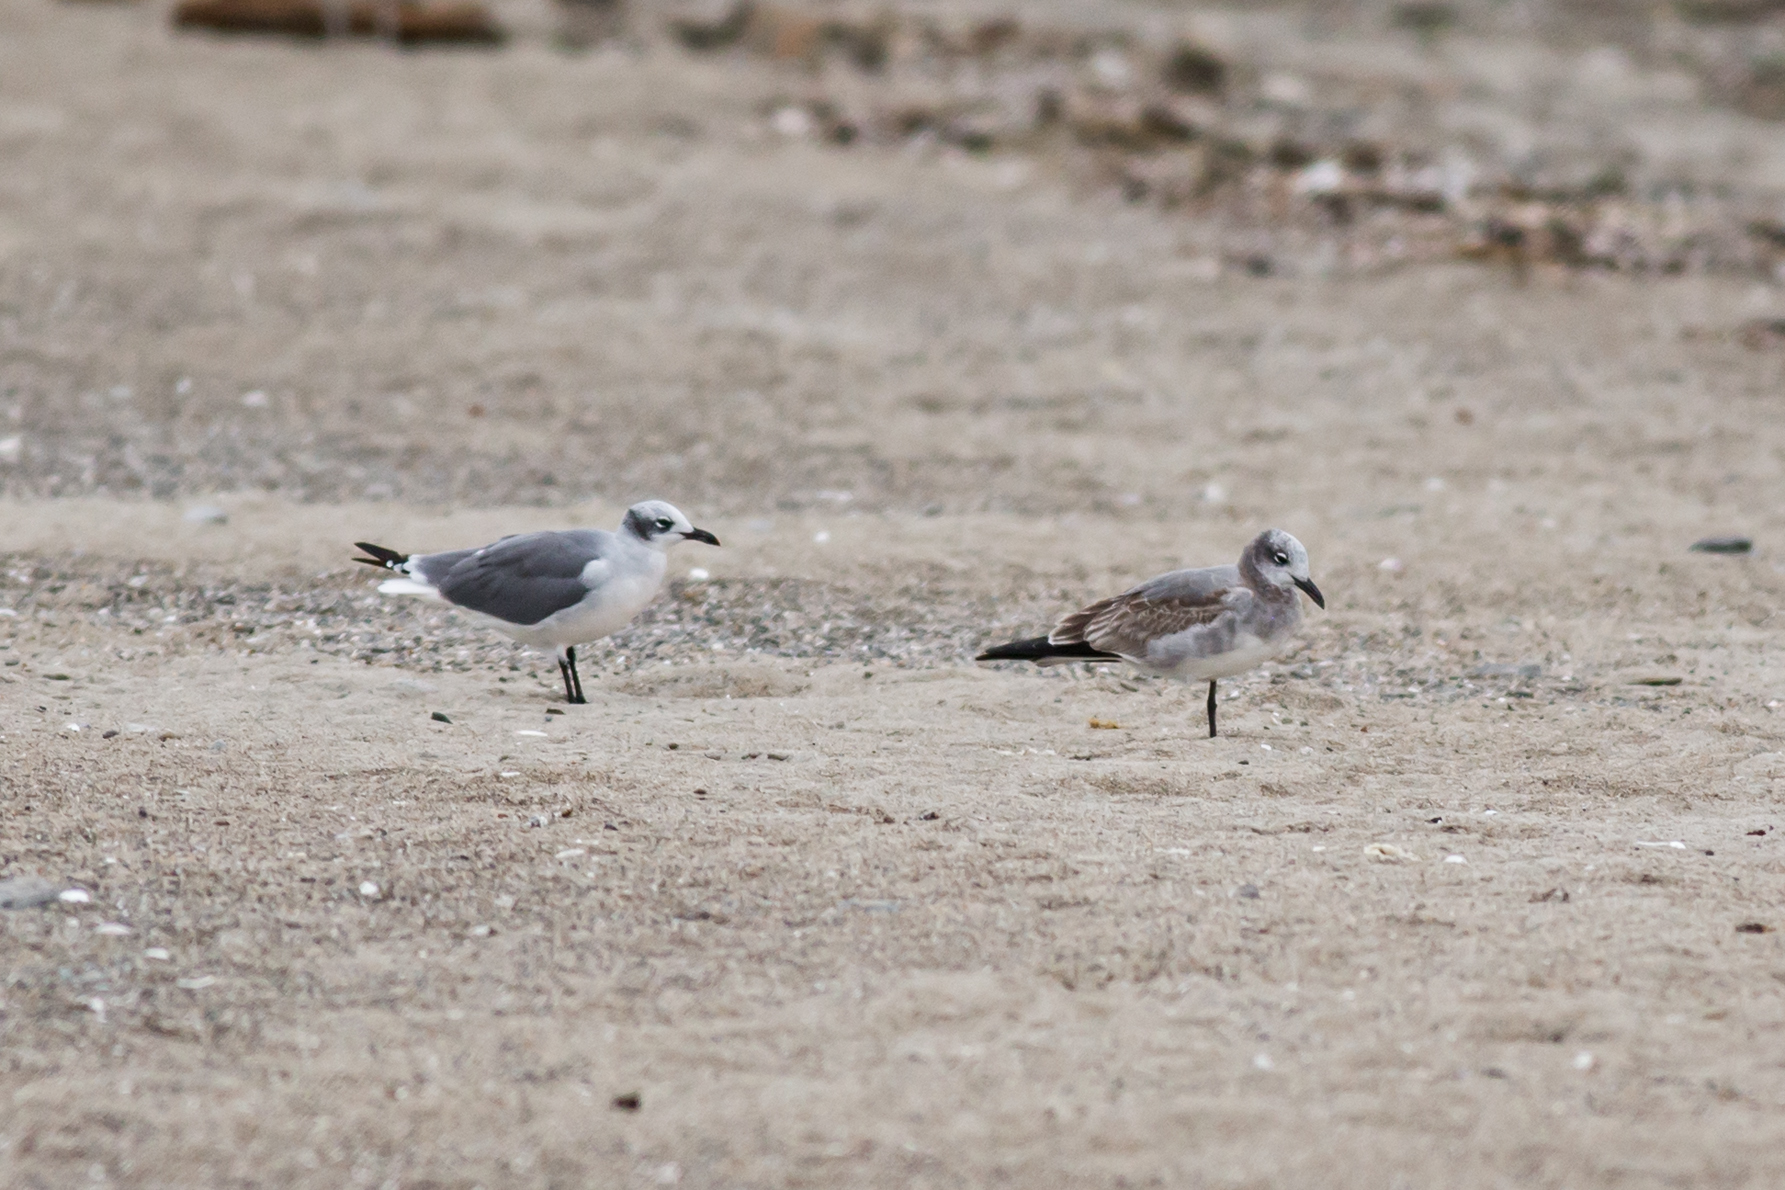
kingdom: Animalia
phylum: Chordata
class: Aves
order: Charadriiformes
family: Laridae
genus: Leucophaeus
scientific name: Leucophaeus atricilla
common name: Laughing gull
